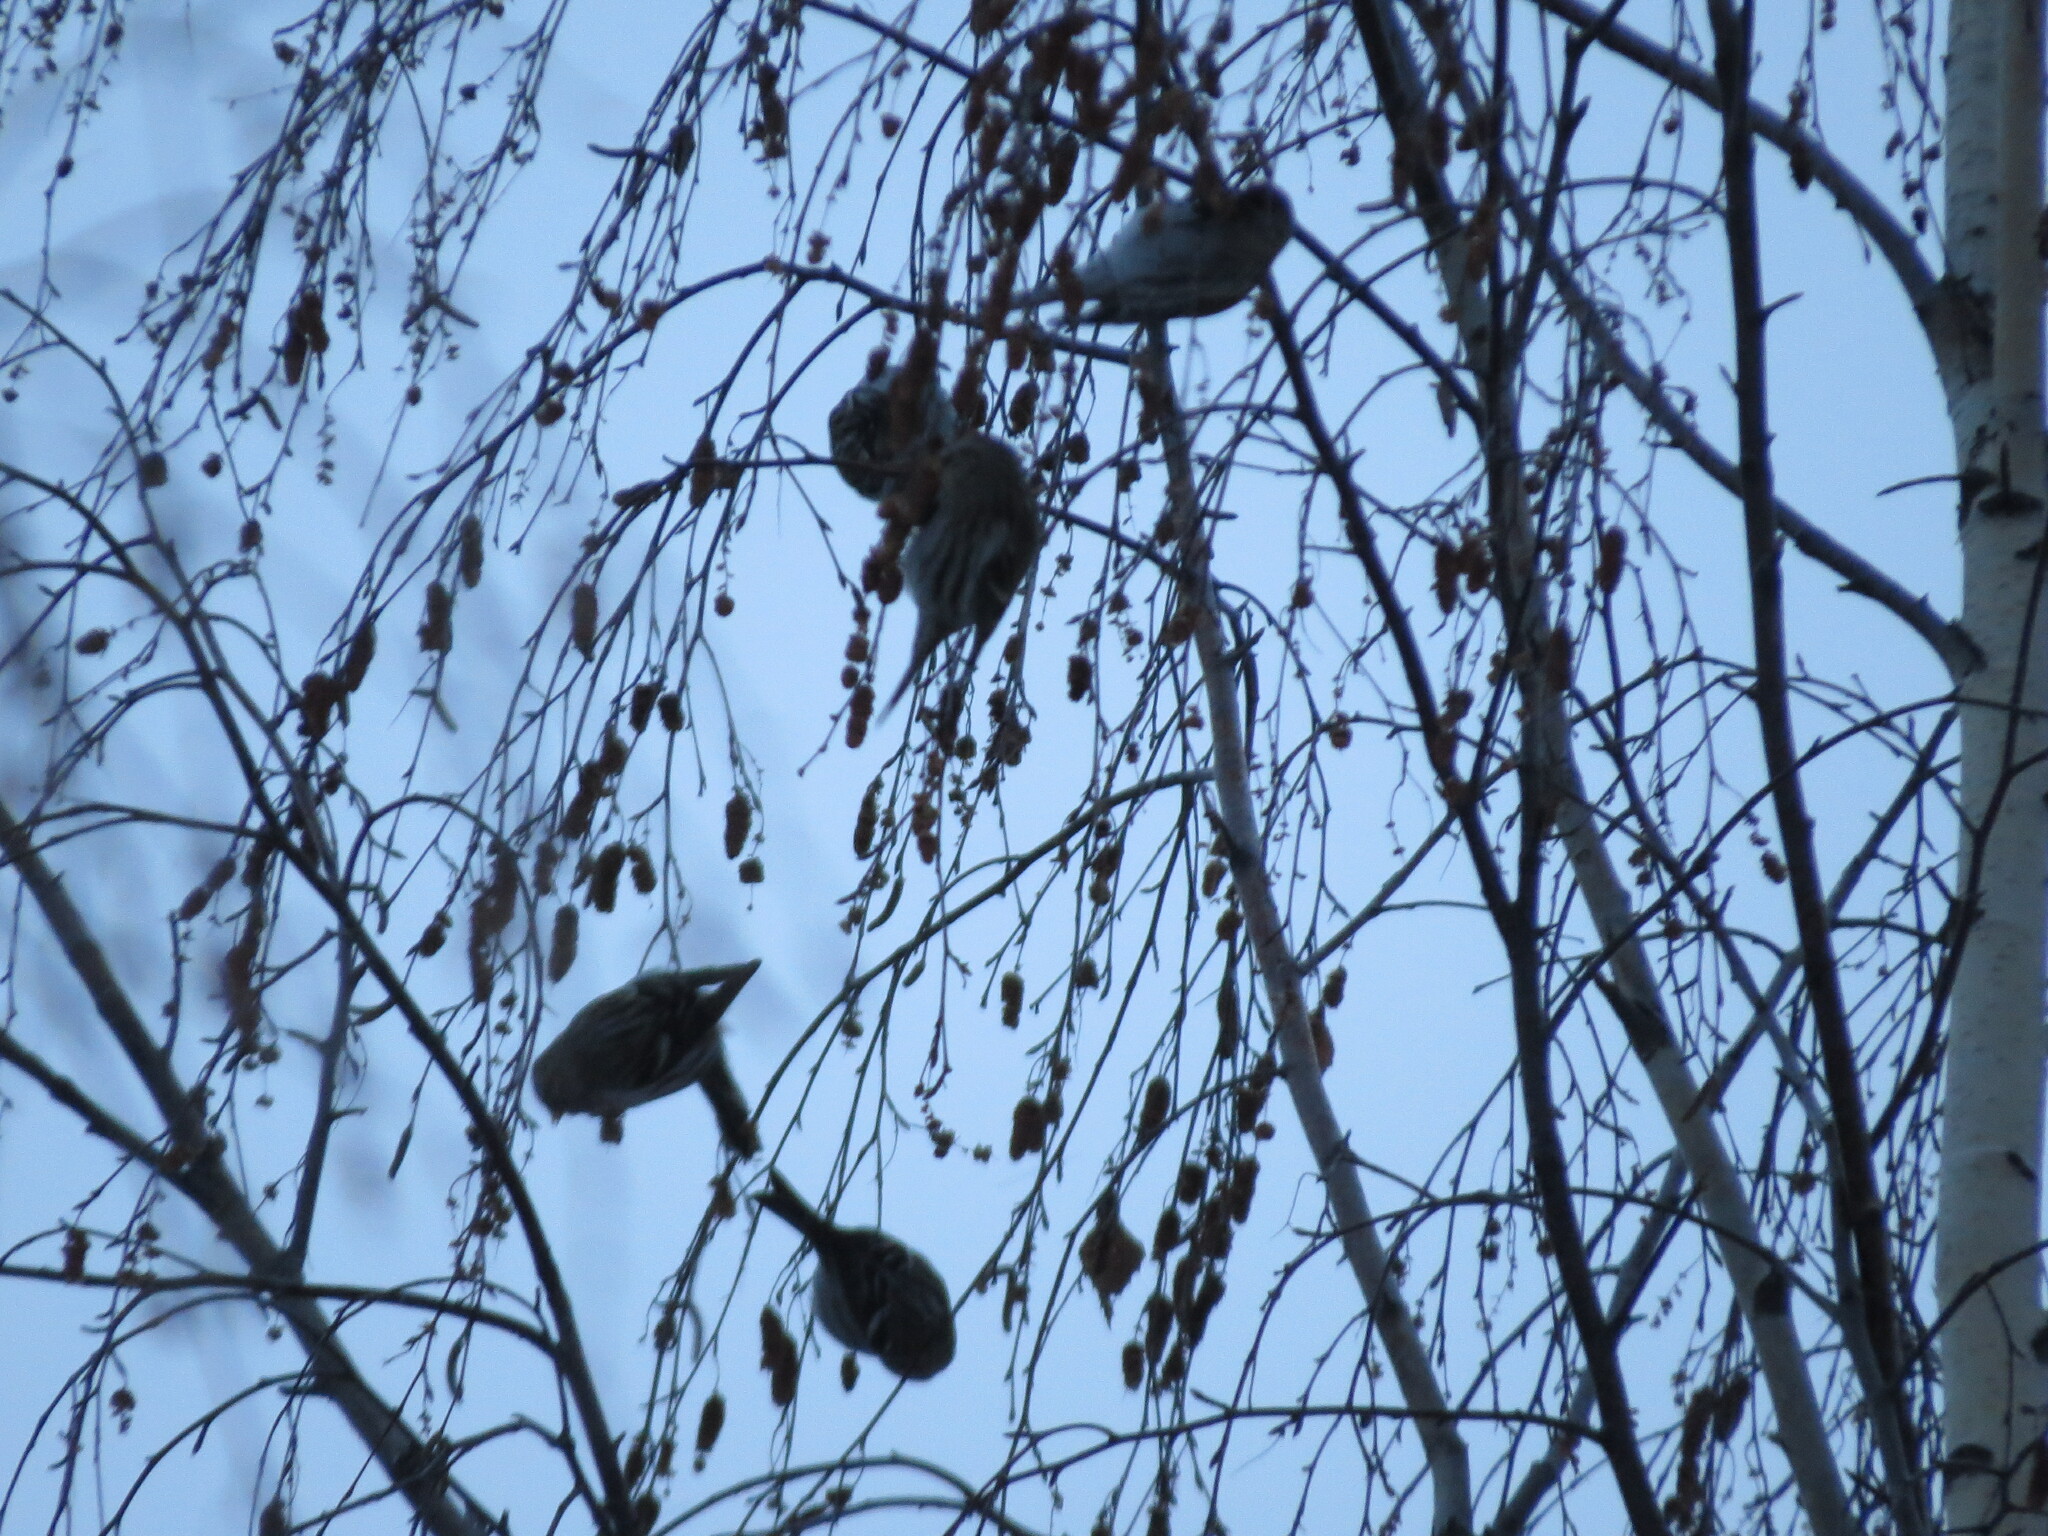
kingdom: Animalia
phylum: Chordata
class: Aves
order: Passeriformes
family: Fringillidae
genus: Acanthis
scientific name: Acanthis flammea
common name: Common redpoll
